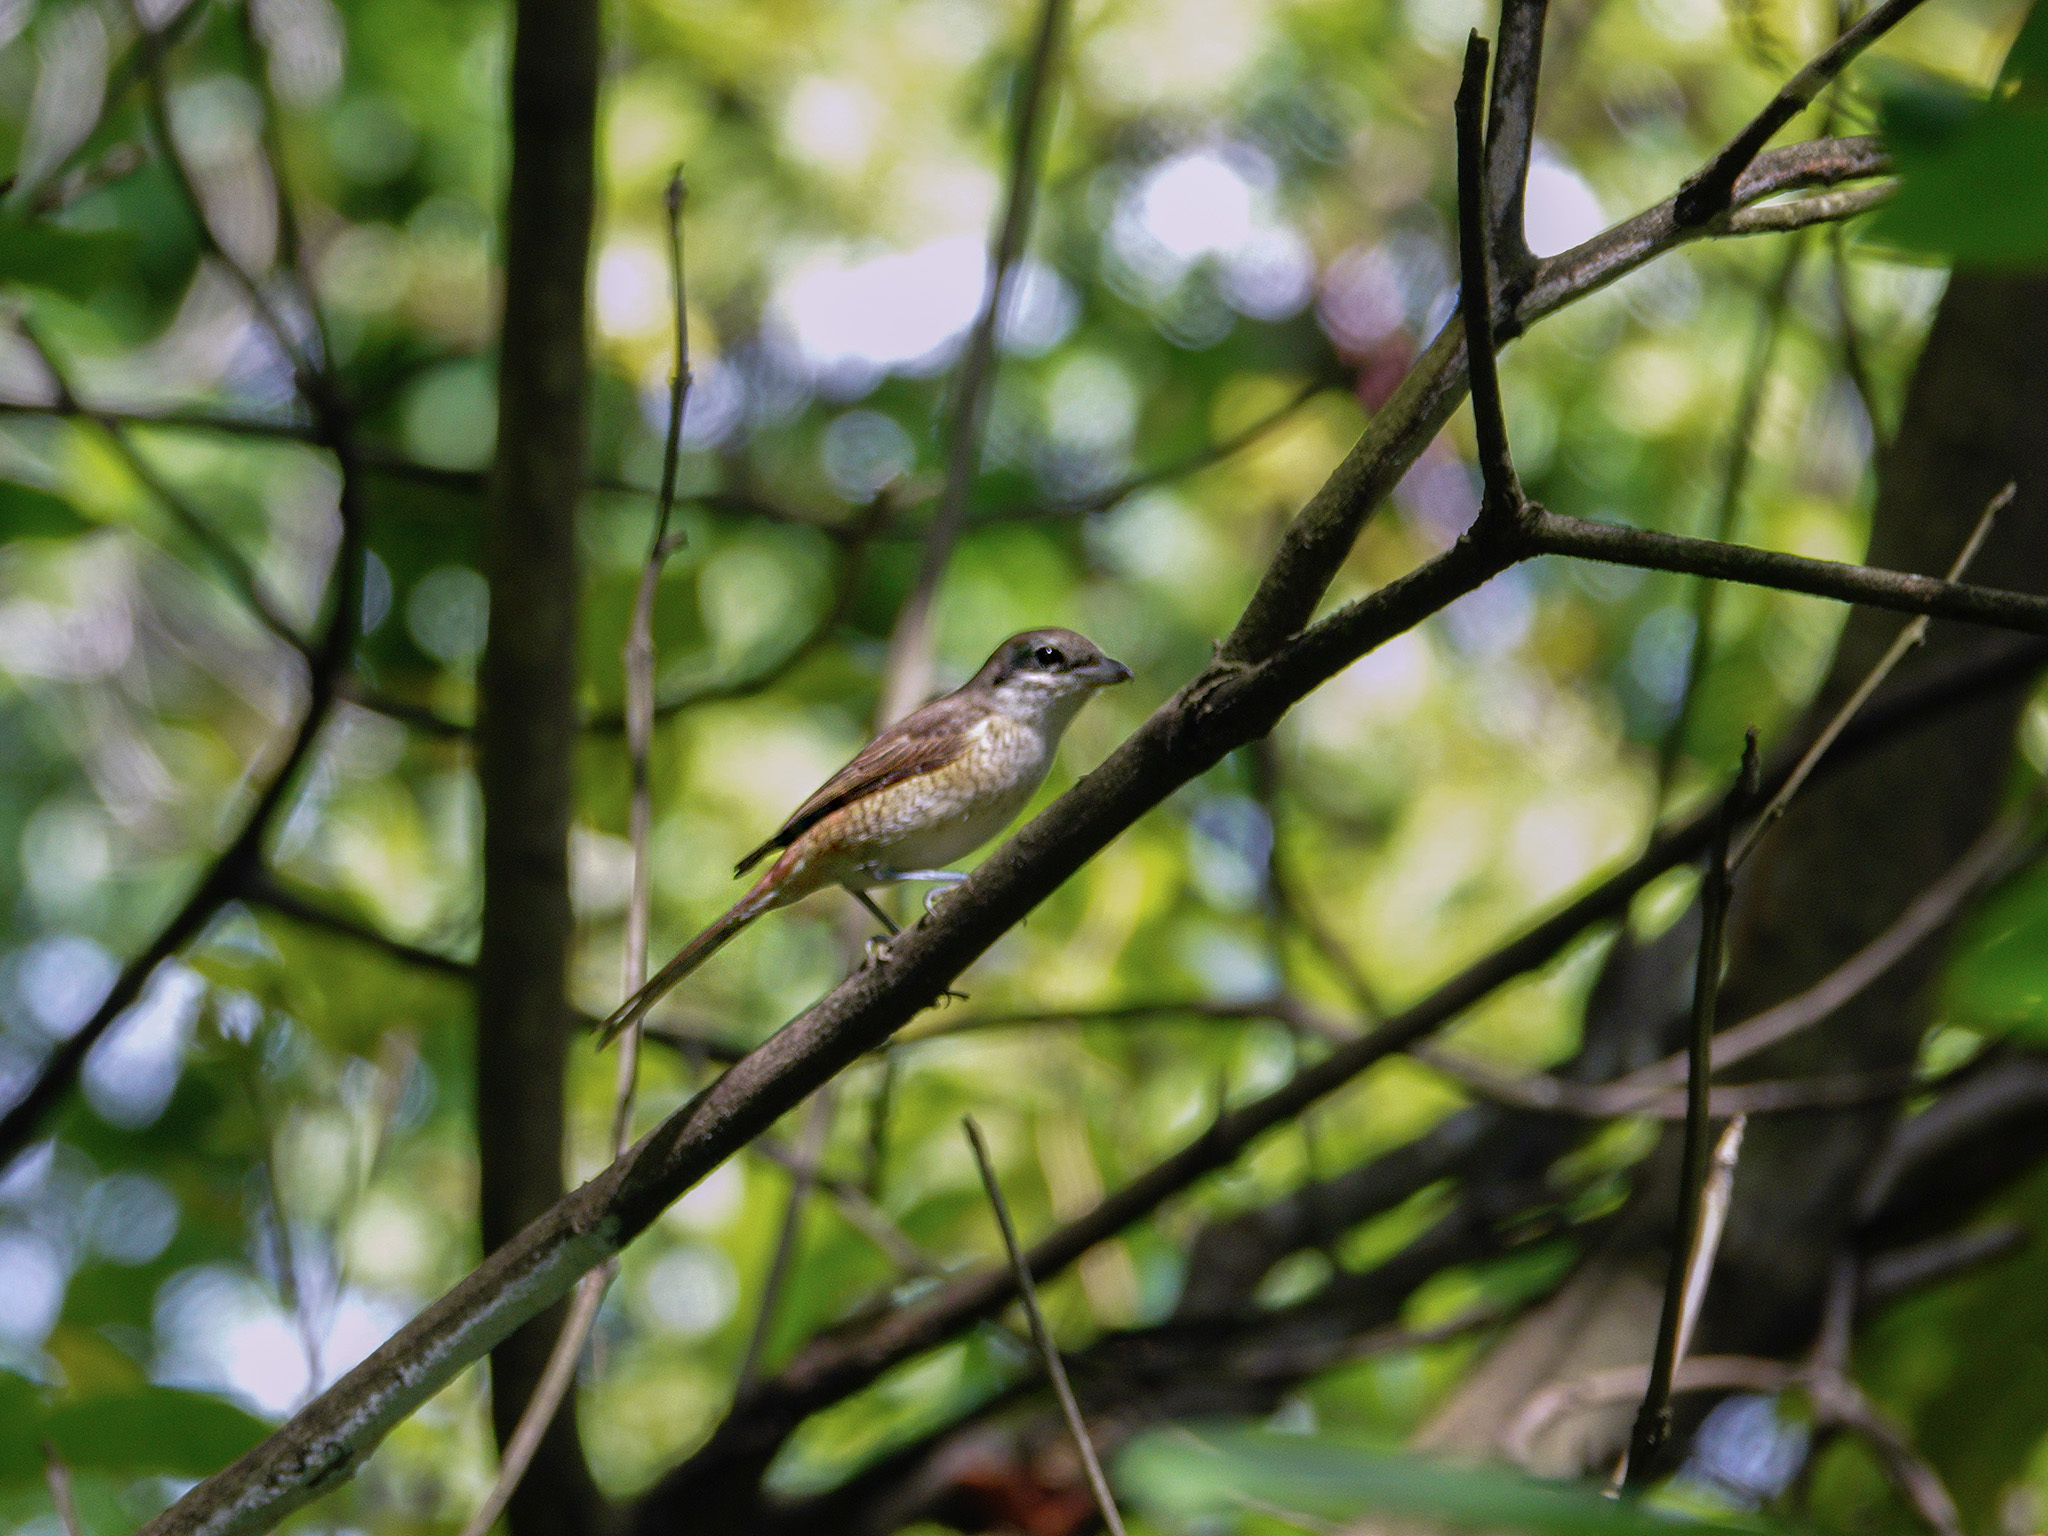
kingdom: Animalia
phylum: Chordata
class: Aves
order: Passeriformes
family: Laniidae
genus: Lanius
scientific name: Lanius cristatus
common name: Brown shrike
